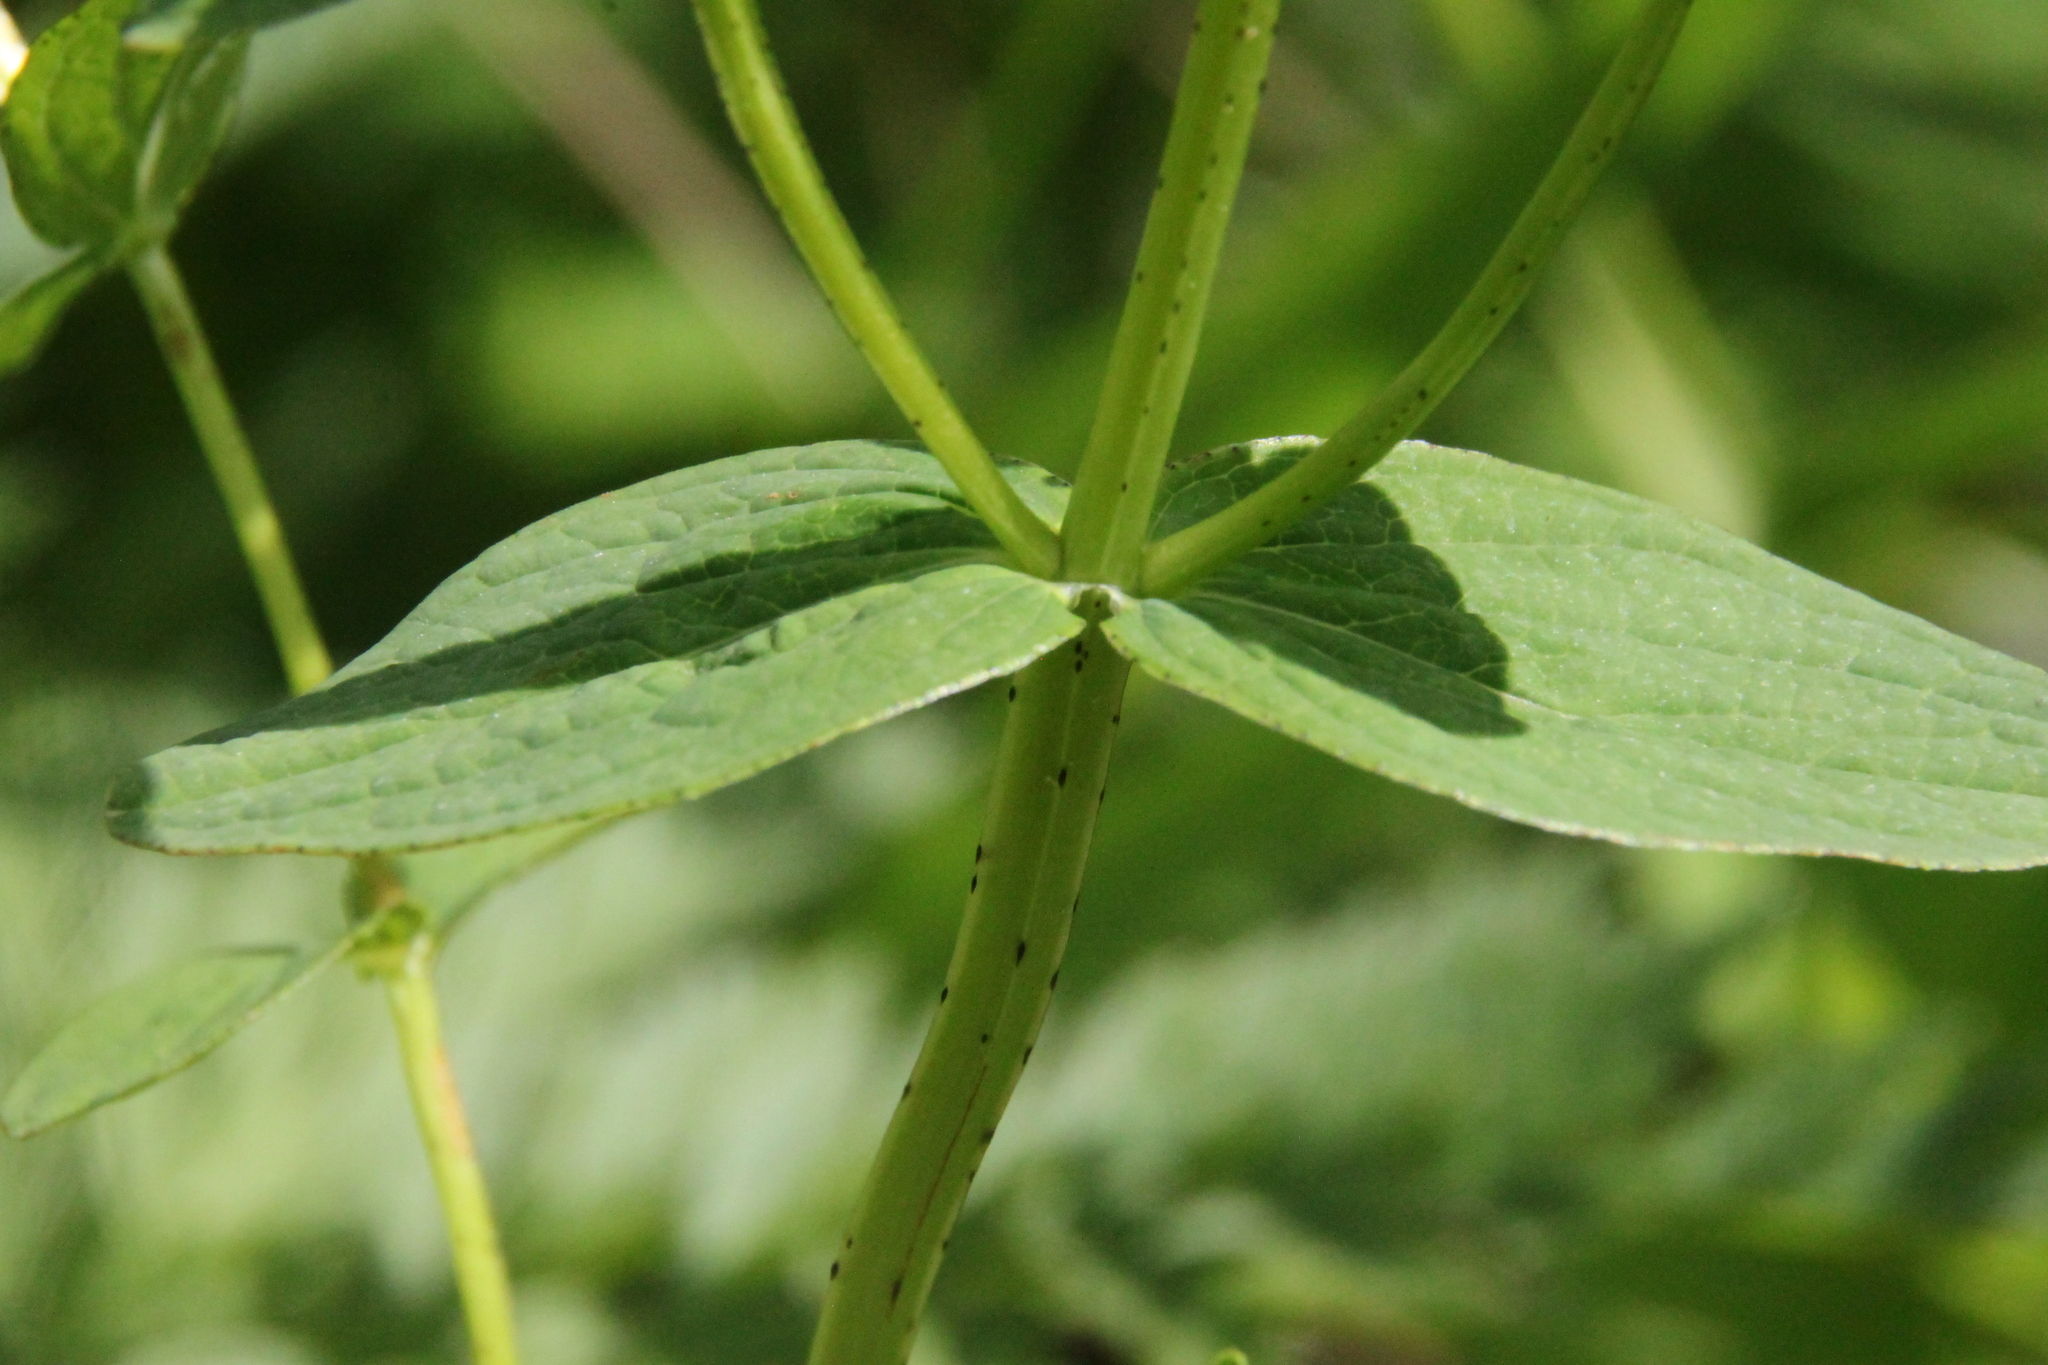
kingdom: Plantae
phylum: Tracheophyta
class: Magnoliopsida
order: Malpighiales
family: Hypericaceae
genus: Hypericum
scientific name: Hypericum maculatum
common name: Imperforate st. john's-wort
